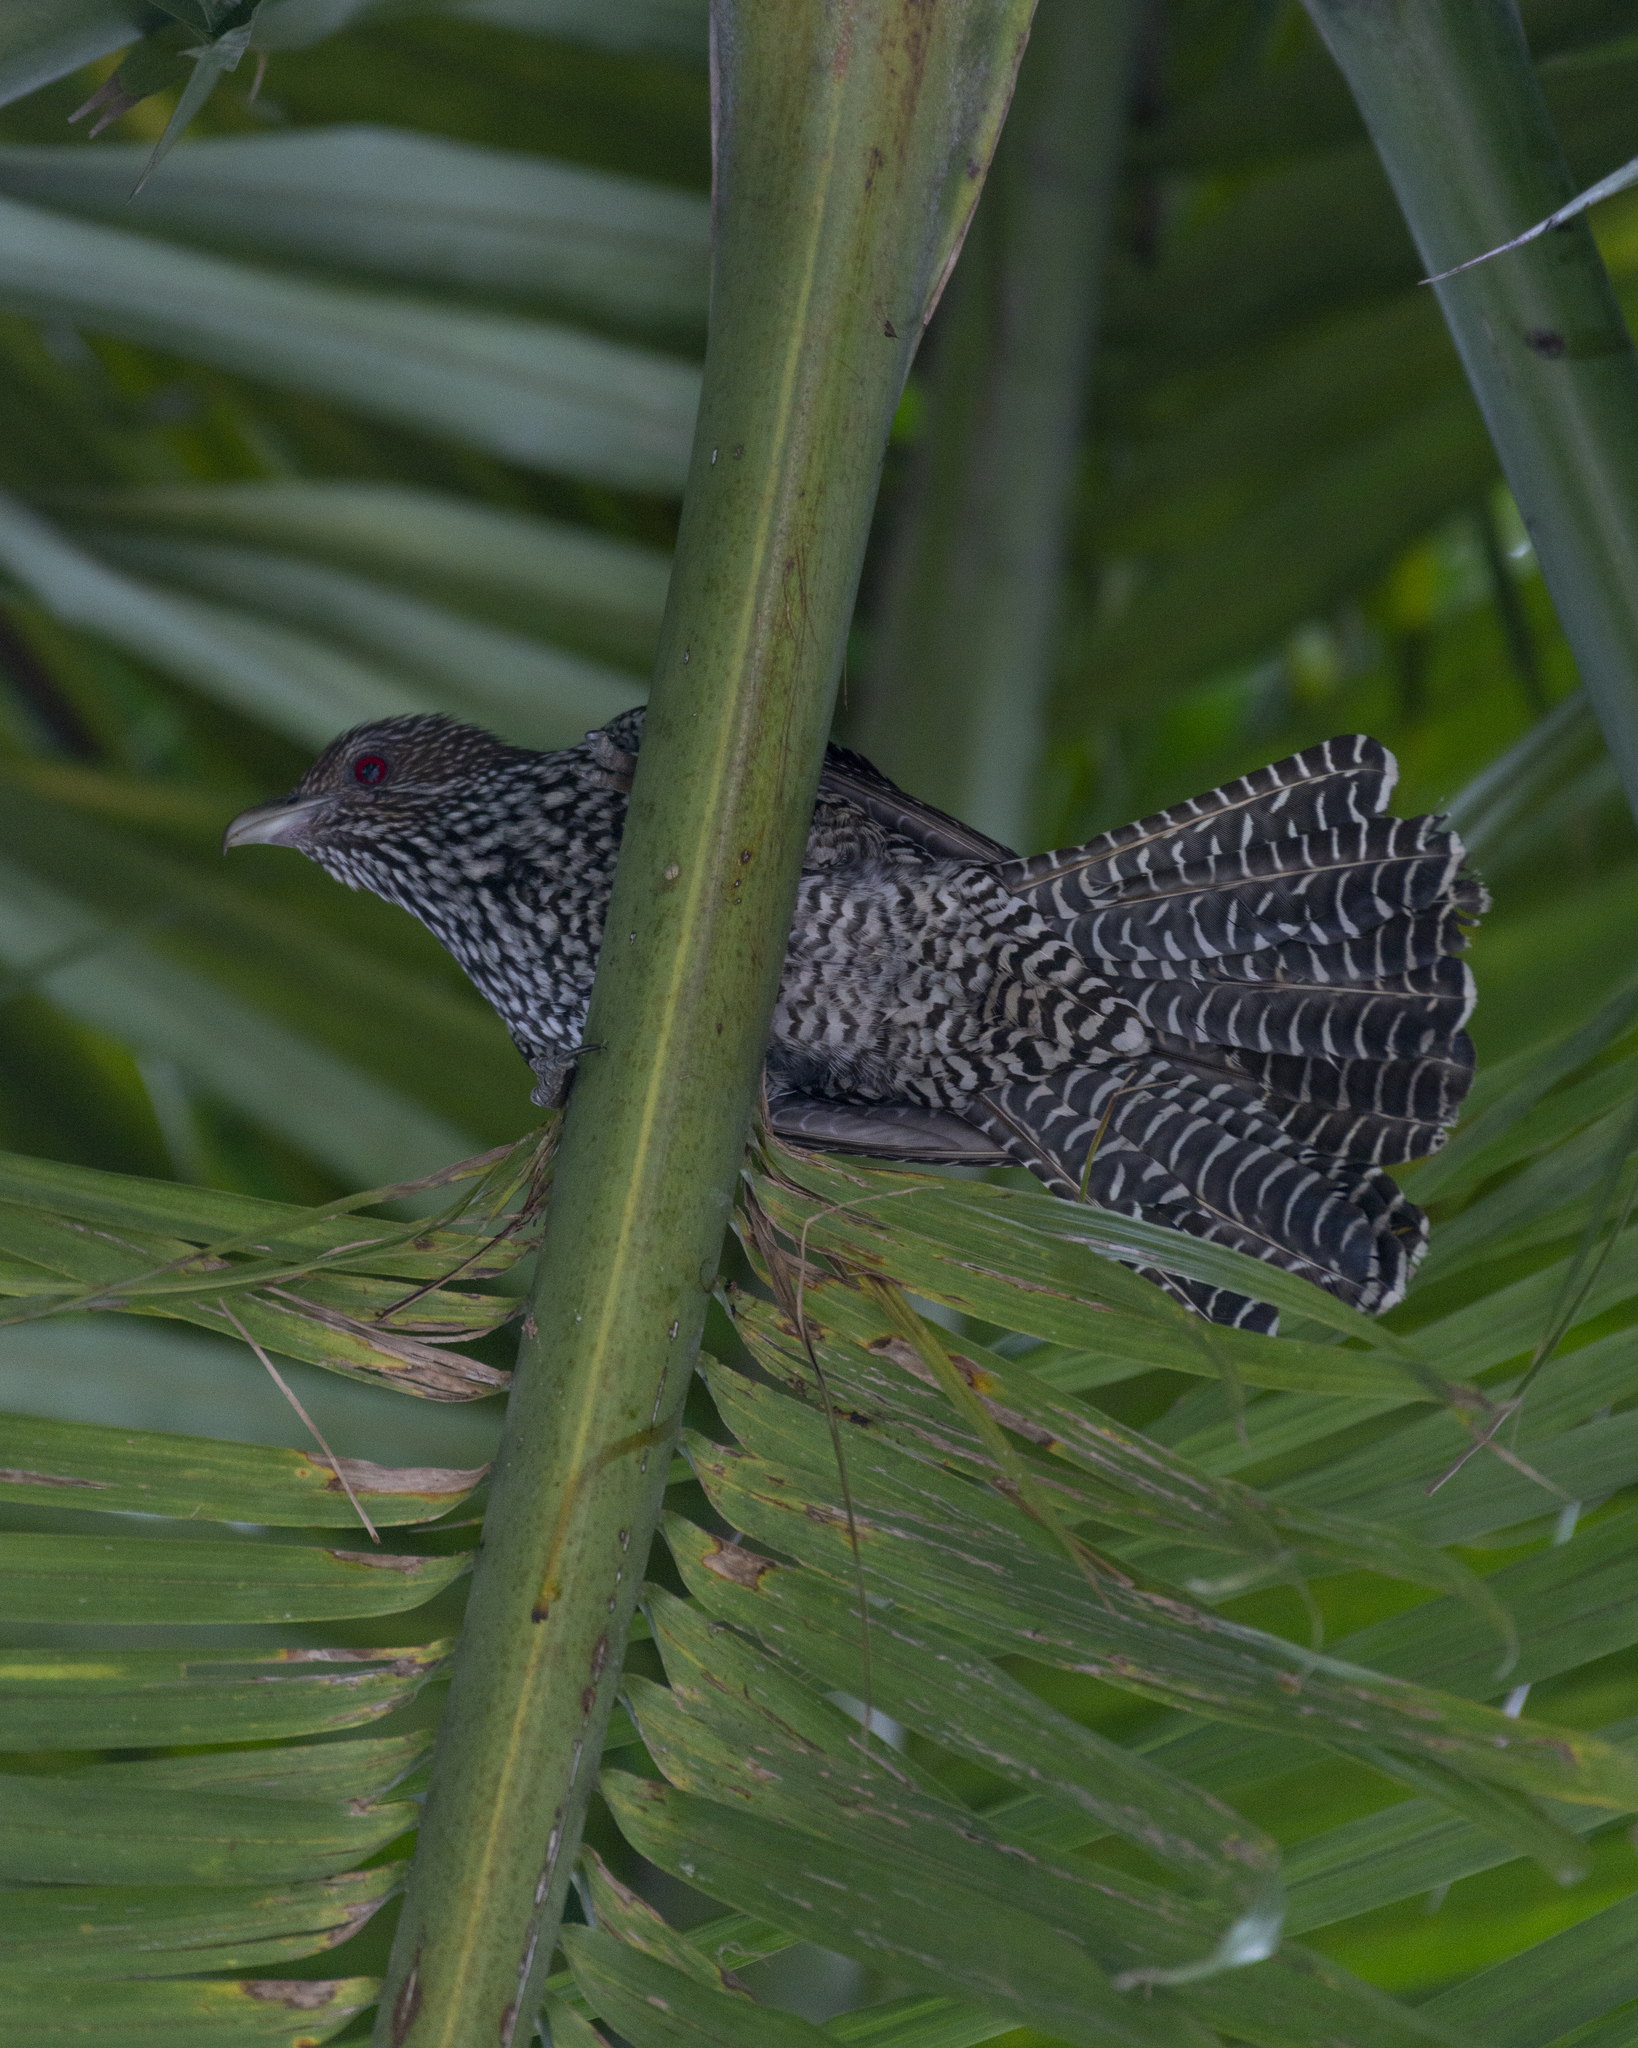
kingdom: Animalia
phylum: Chordata
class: Aves
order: Cuculiformes
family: Cuculidae
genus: Eudynamys
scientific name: Eudynamys scolopaceus
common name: Asian koel
